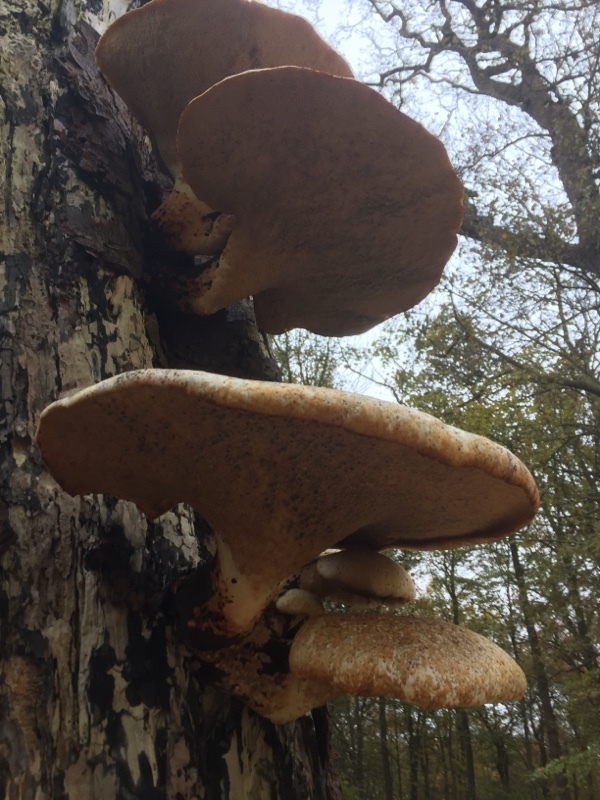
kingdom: Fungi
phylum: Basidiomycota
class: Agaricomycetes
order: Polyporales
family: Polyporaceae
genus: Cerioporus
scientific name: Cerioporus squamosus
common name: Dryad's saddle
